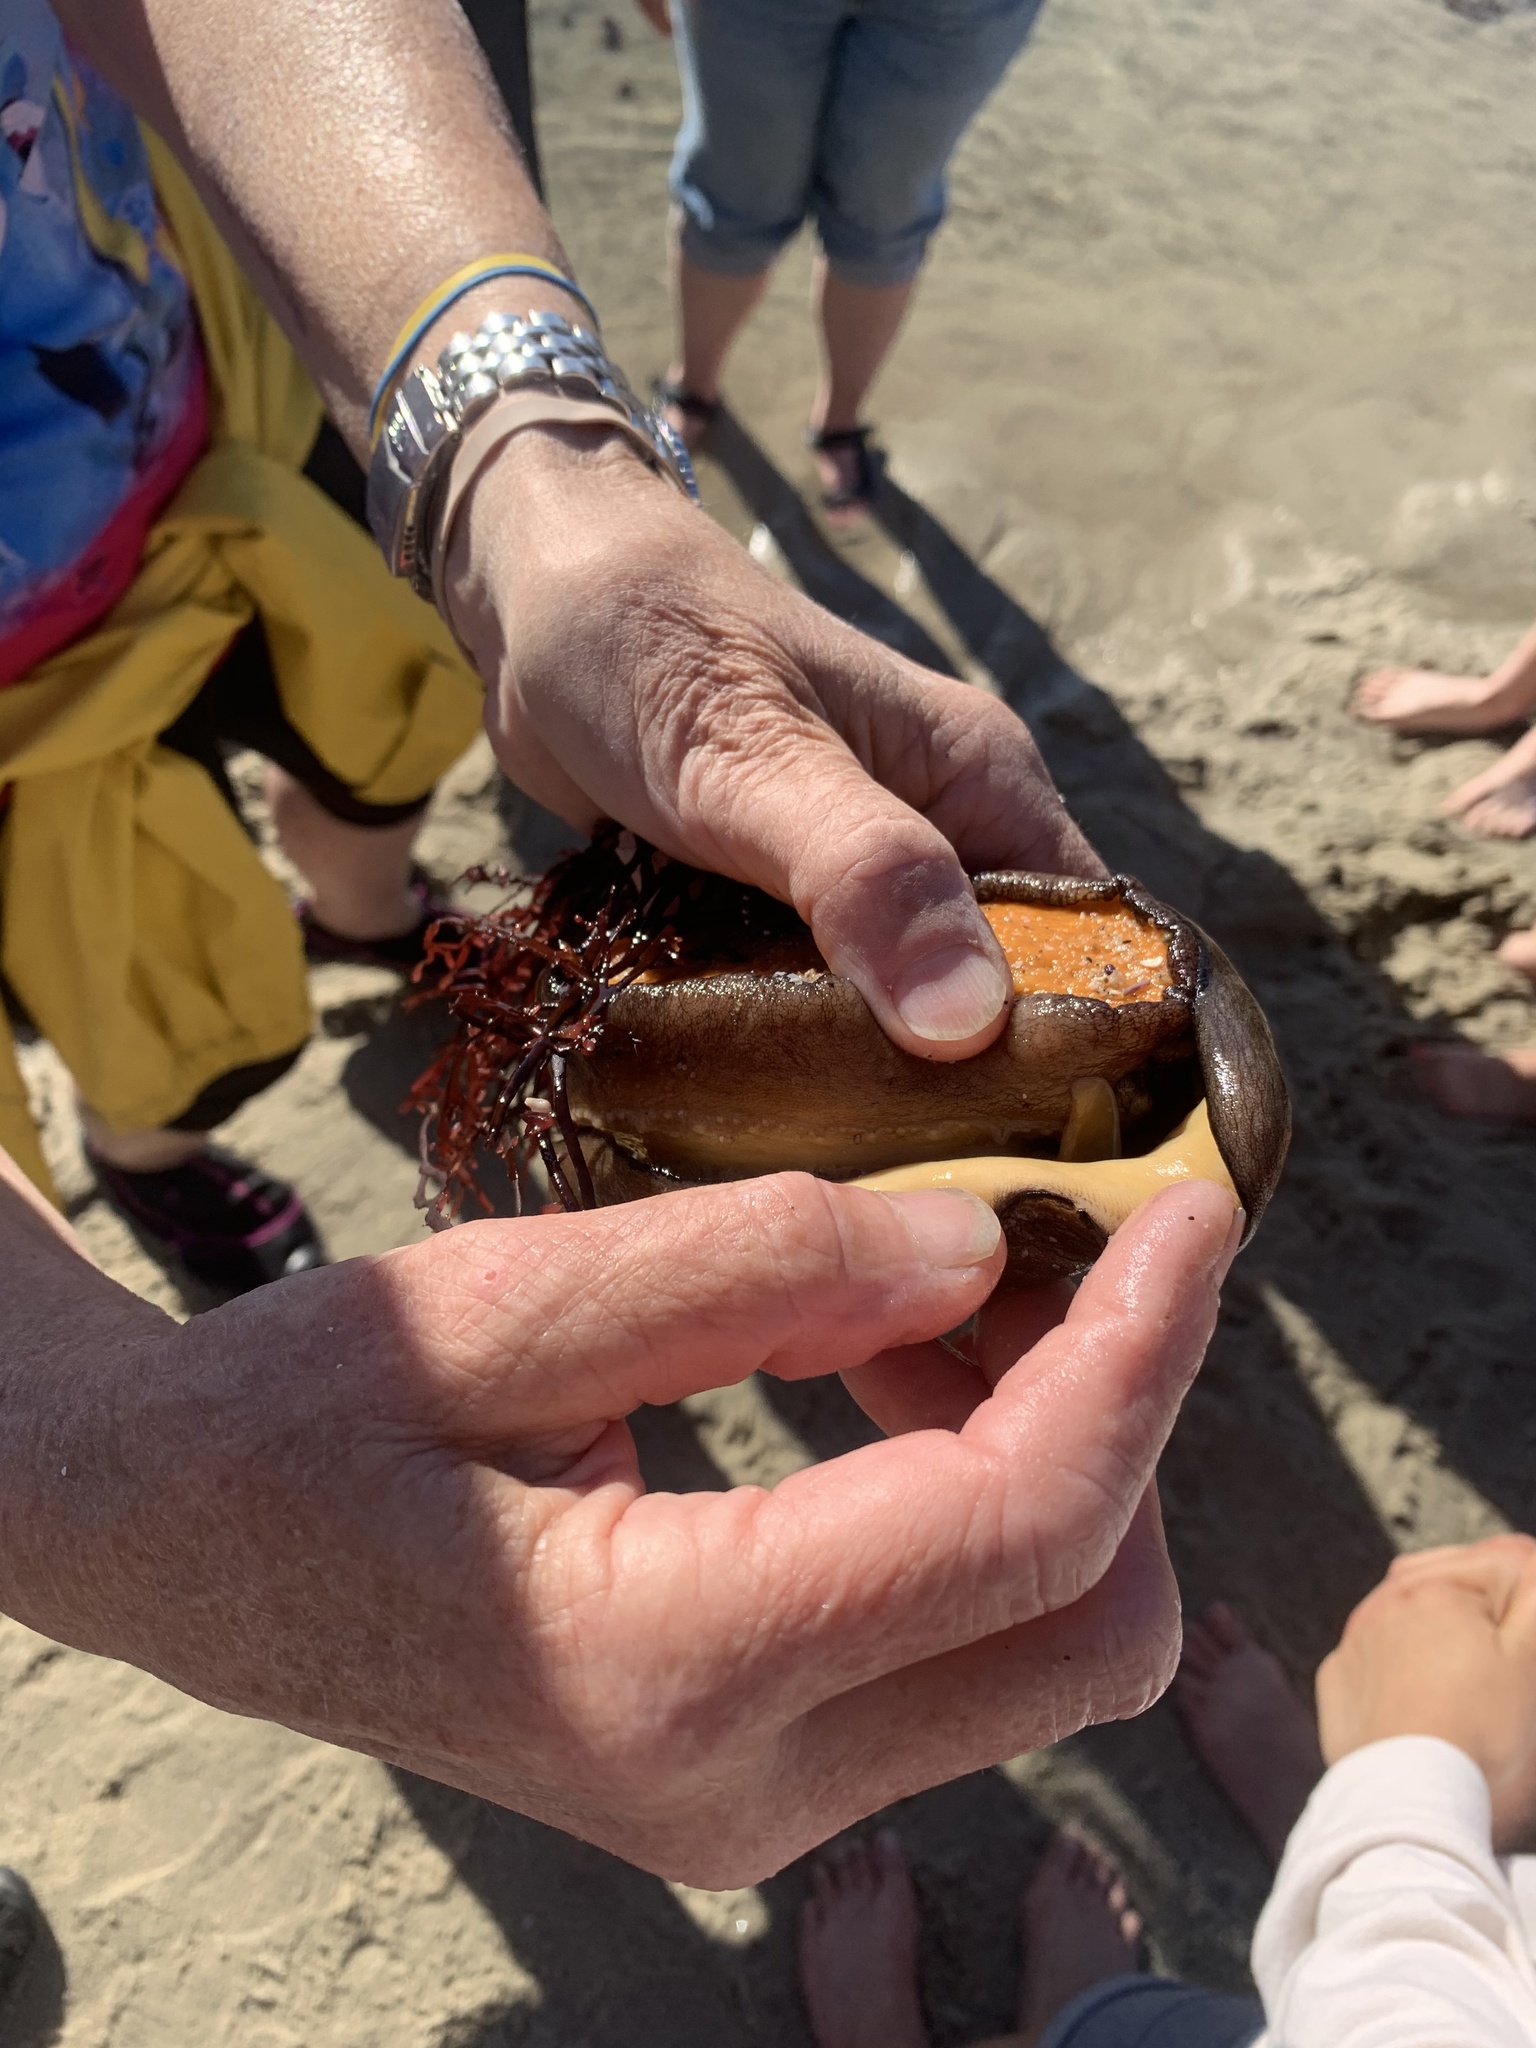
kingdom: Animalia
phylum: Mollusca
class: Gastropoda
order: Lepetellida
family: Fissurellidae
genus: Megathura
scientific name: Megathura crenulata
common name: Giant keyhole limpet
